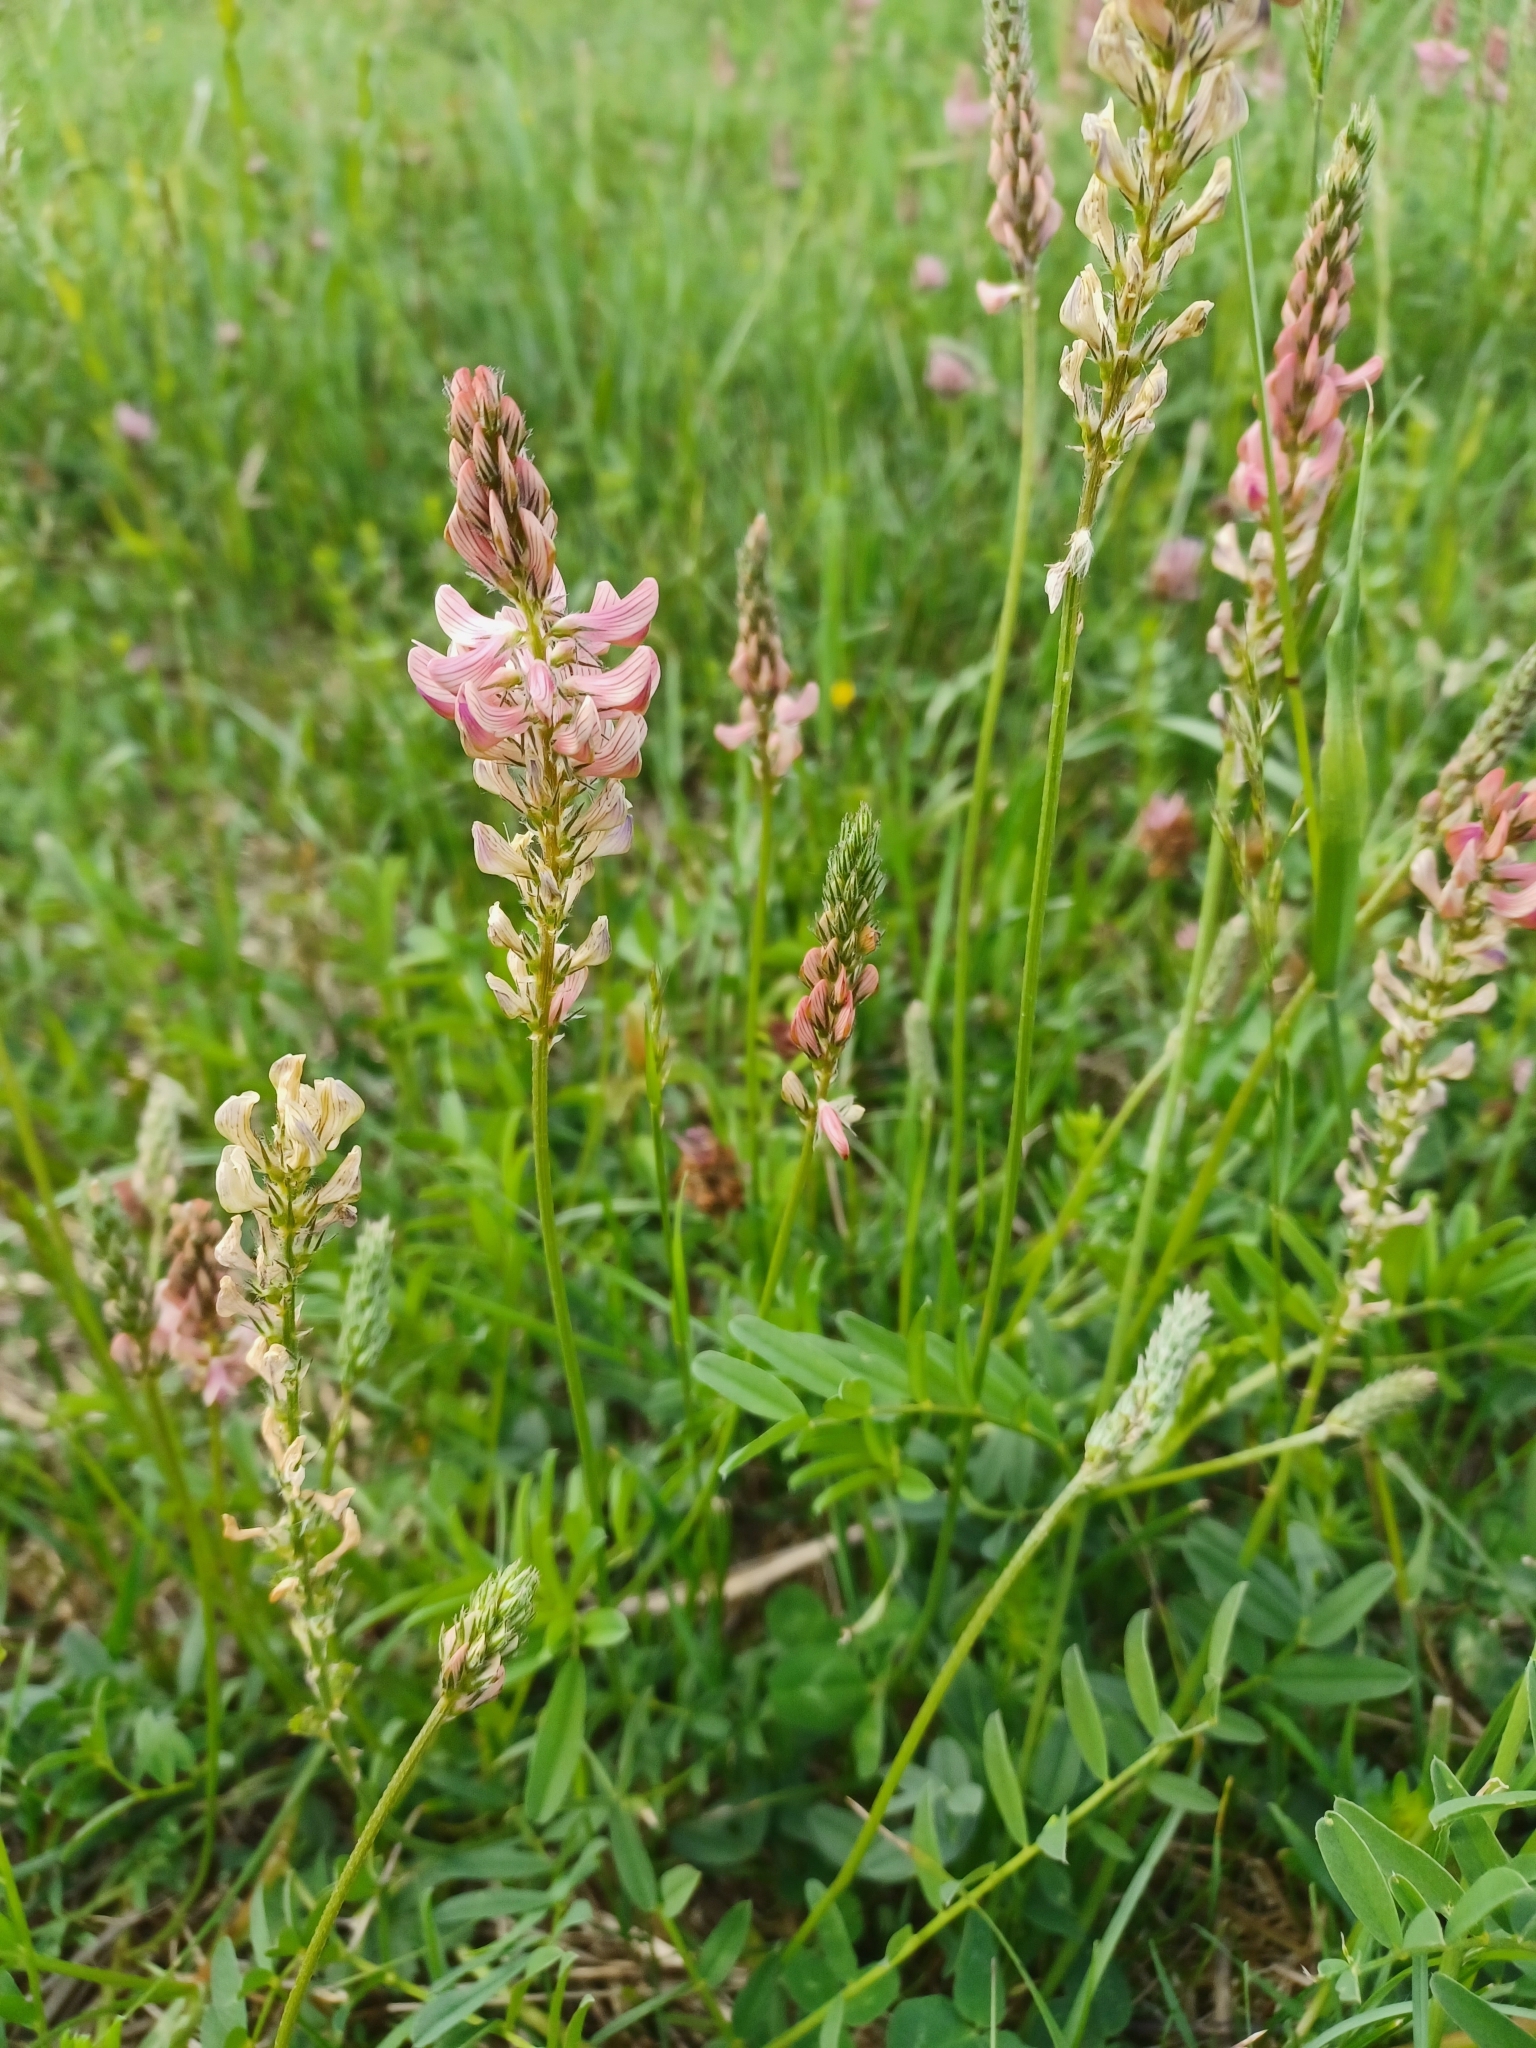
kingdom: Plantae
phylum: Tracheophyta
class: Magnoliopsida
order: Fabales
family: Fabaceae
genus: Onobrychis
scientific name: Onobrychis viciifolia
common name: Sainfoin
